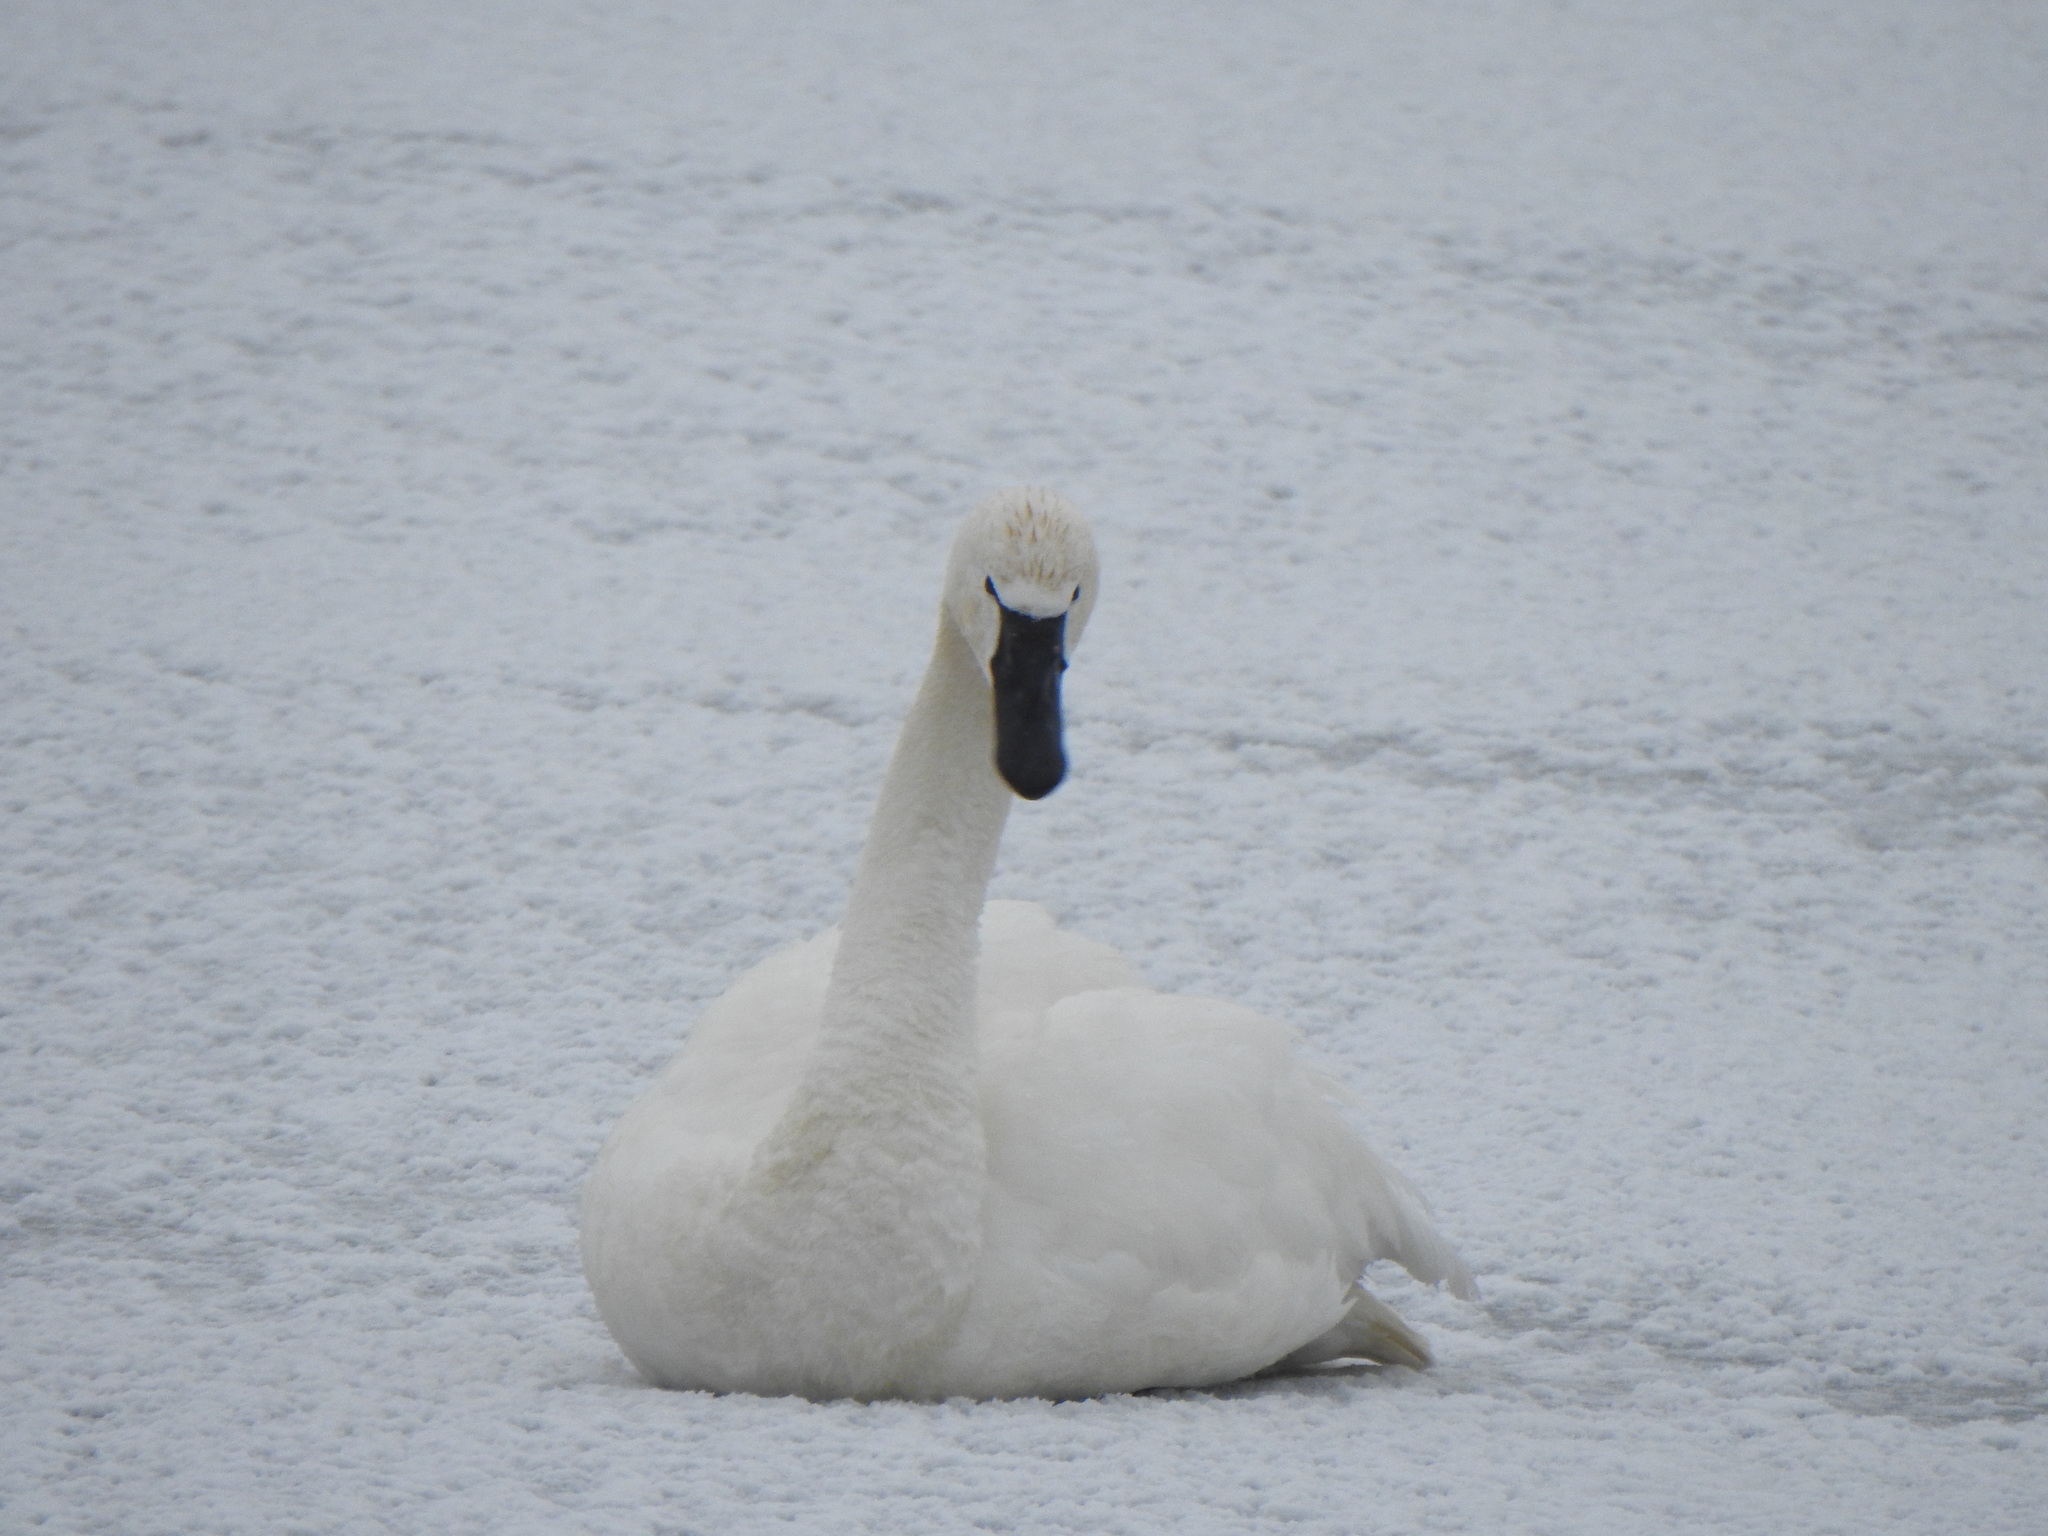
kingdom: Animalia
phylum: Chordata
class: Aves
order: Anseriformes
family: Anatidae
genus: Cygnus
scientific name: Cygnus columbianus
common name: Tundra swan
